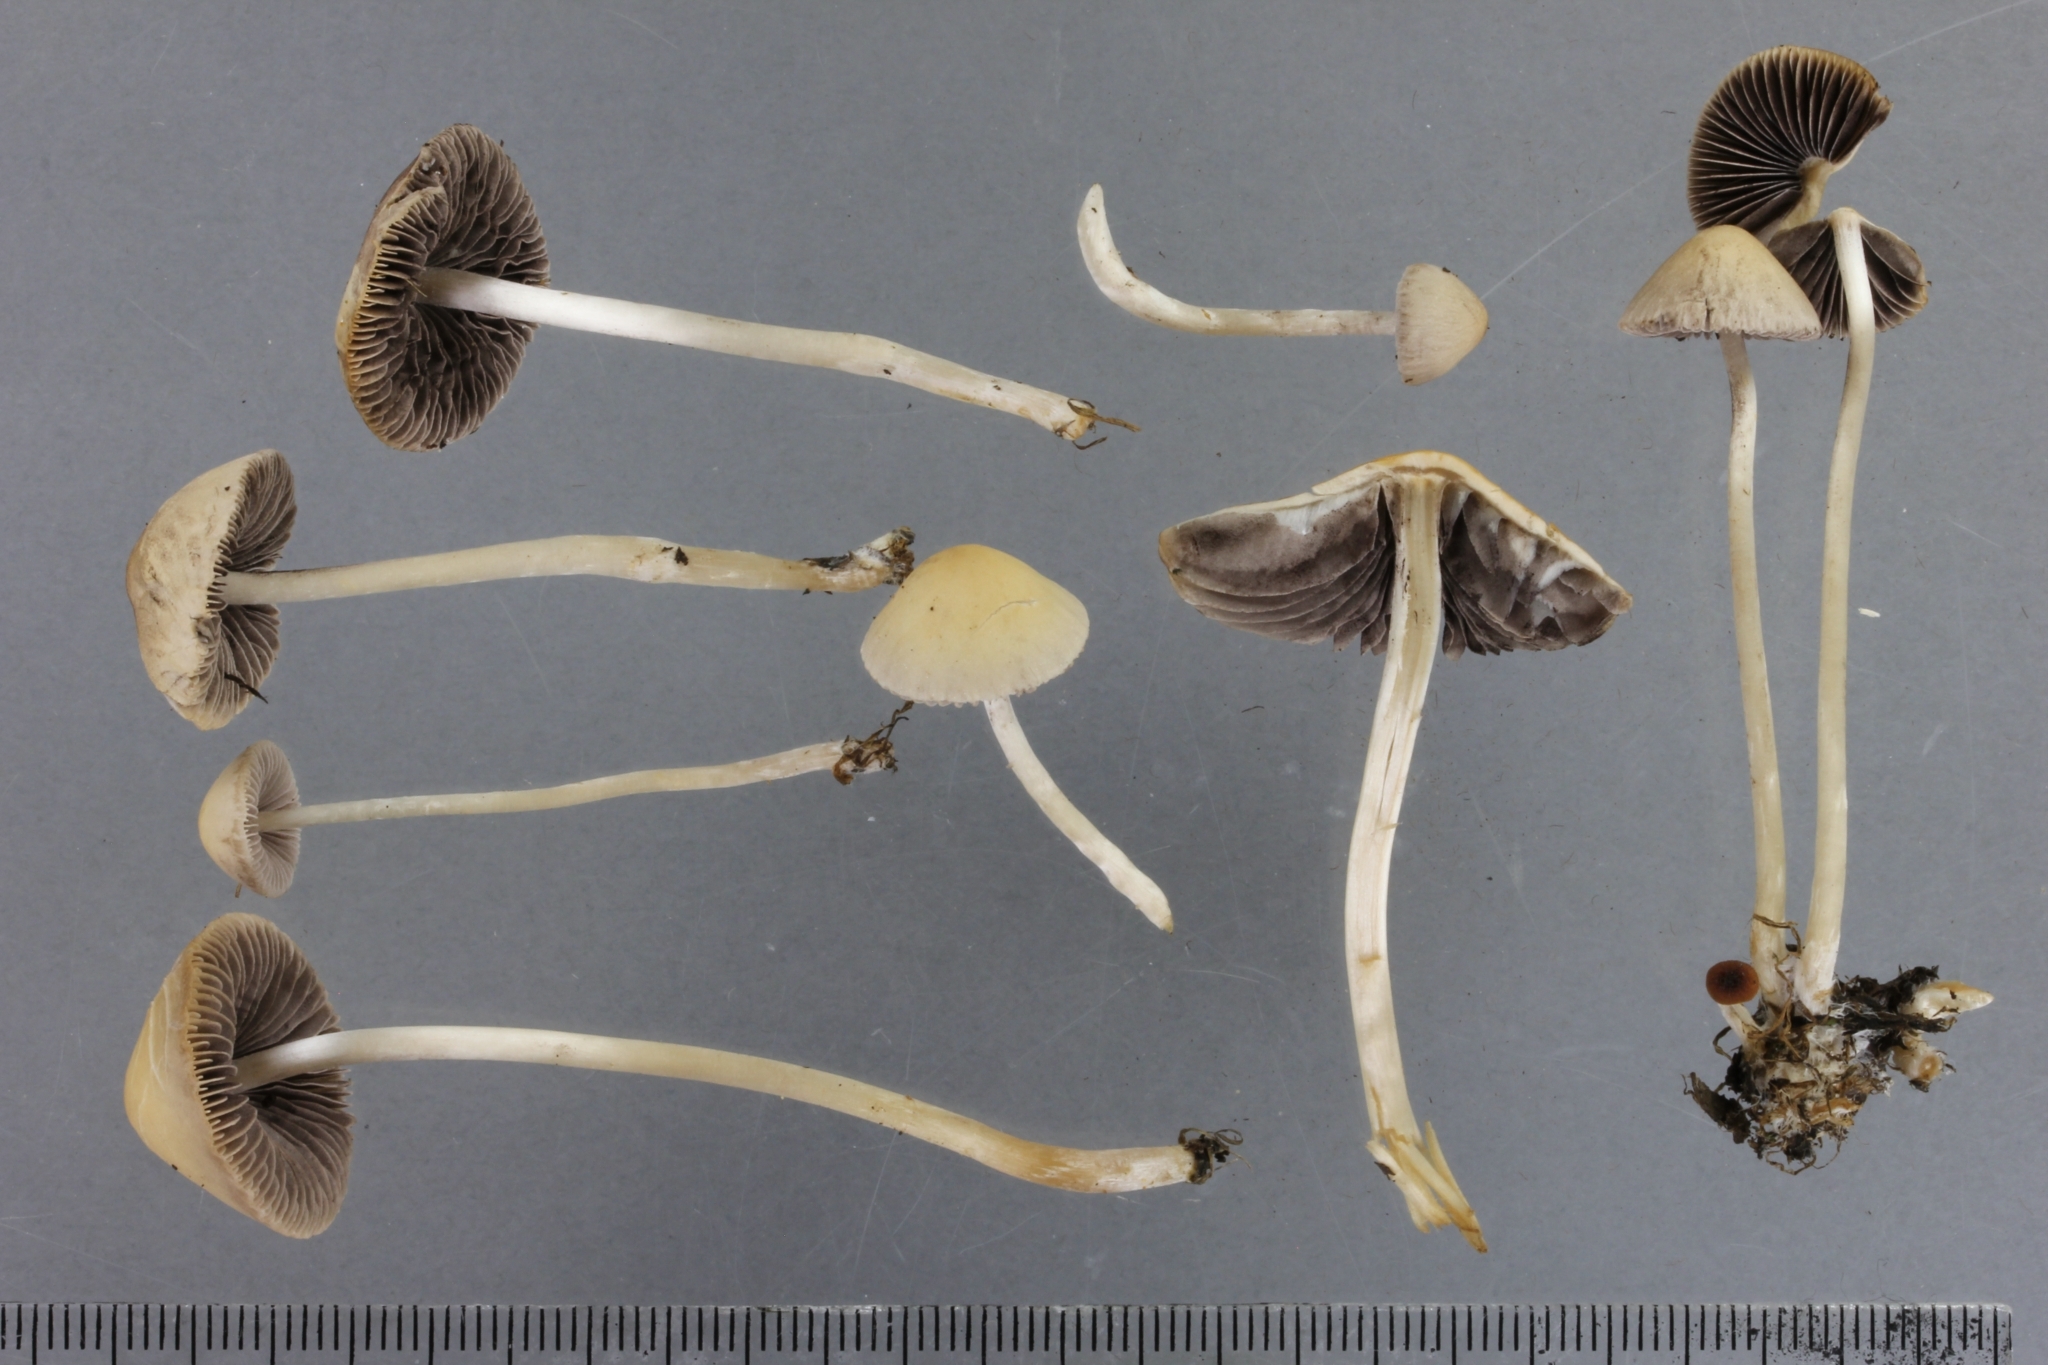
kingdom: Fungi
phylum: Basidiomycota
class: Agaricomycetes
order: Agaricales
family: Psathyrellaceae
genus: Psathyrella
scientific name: Psathyrella pseudogracilis
